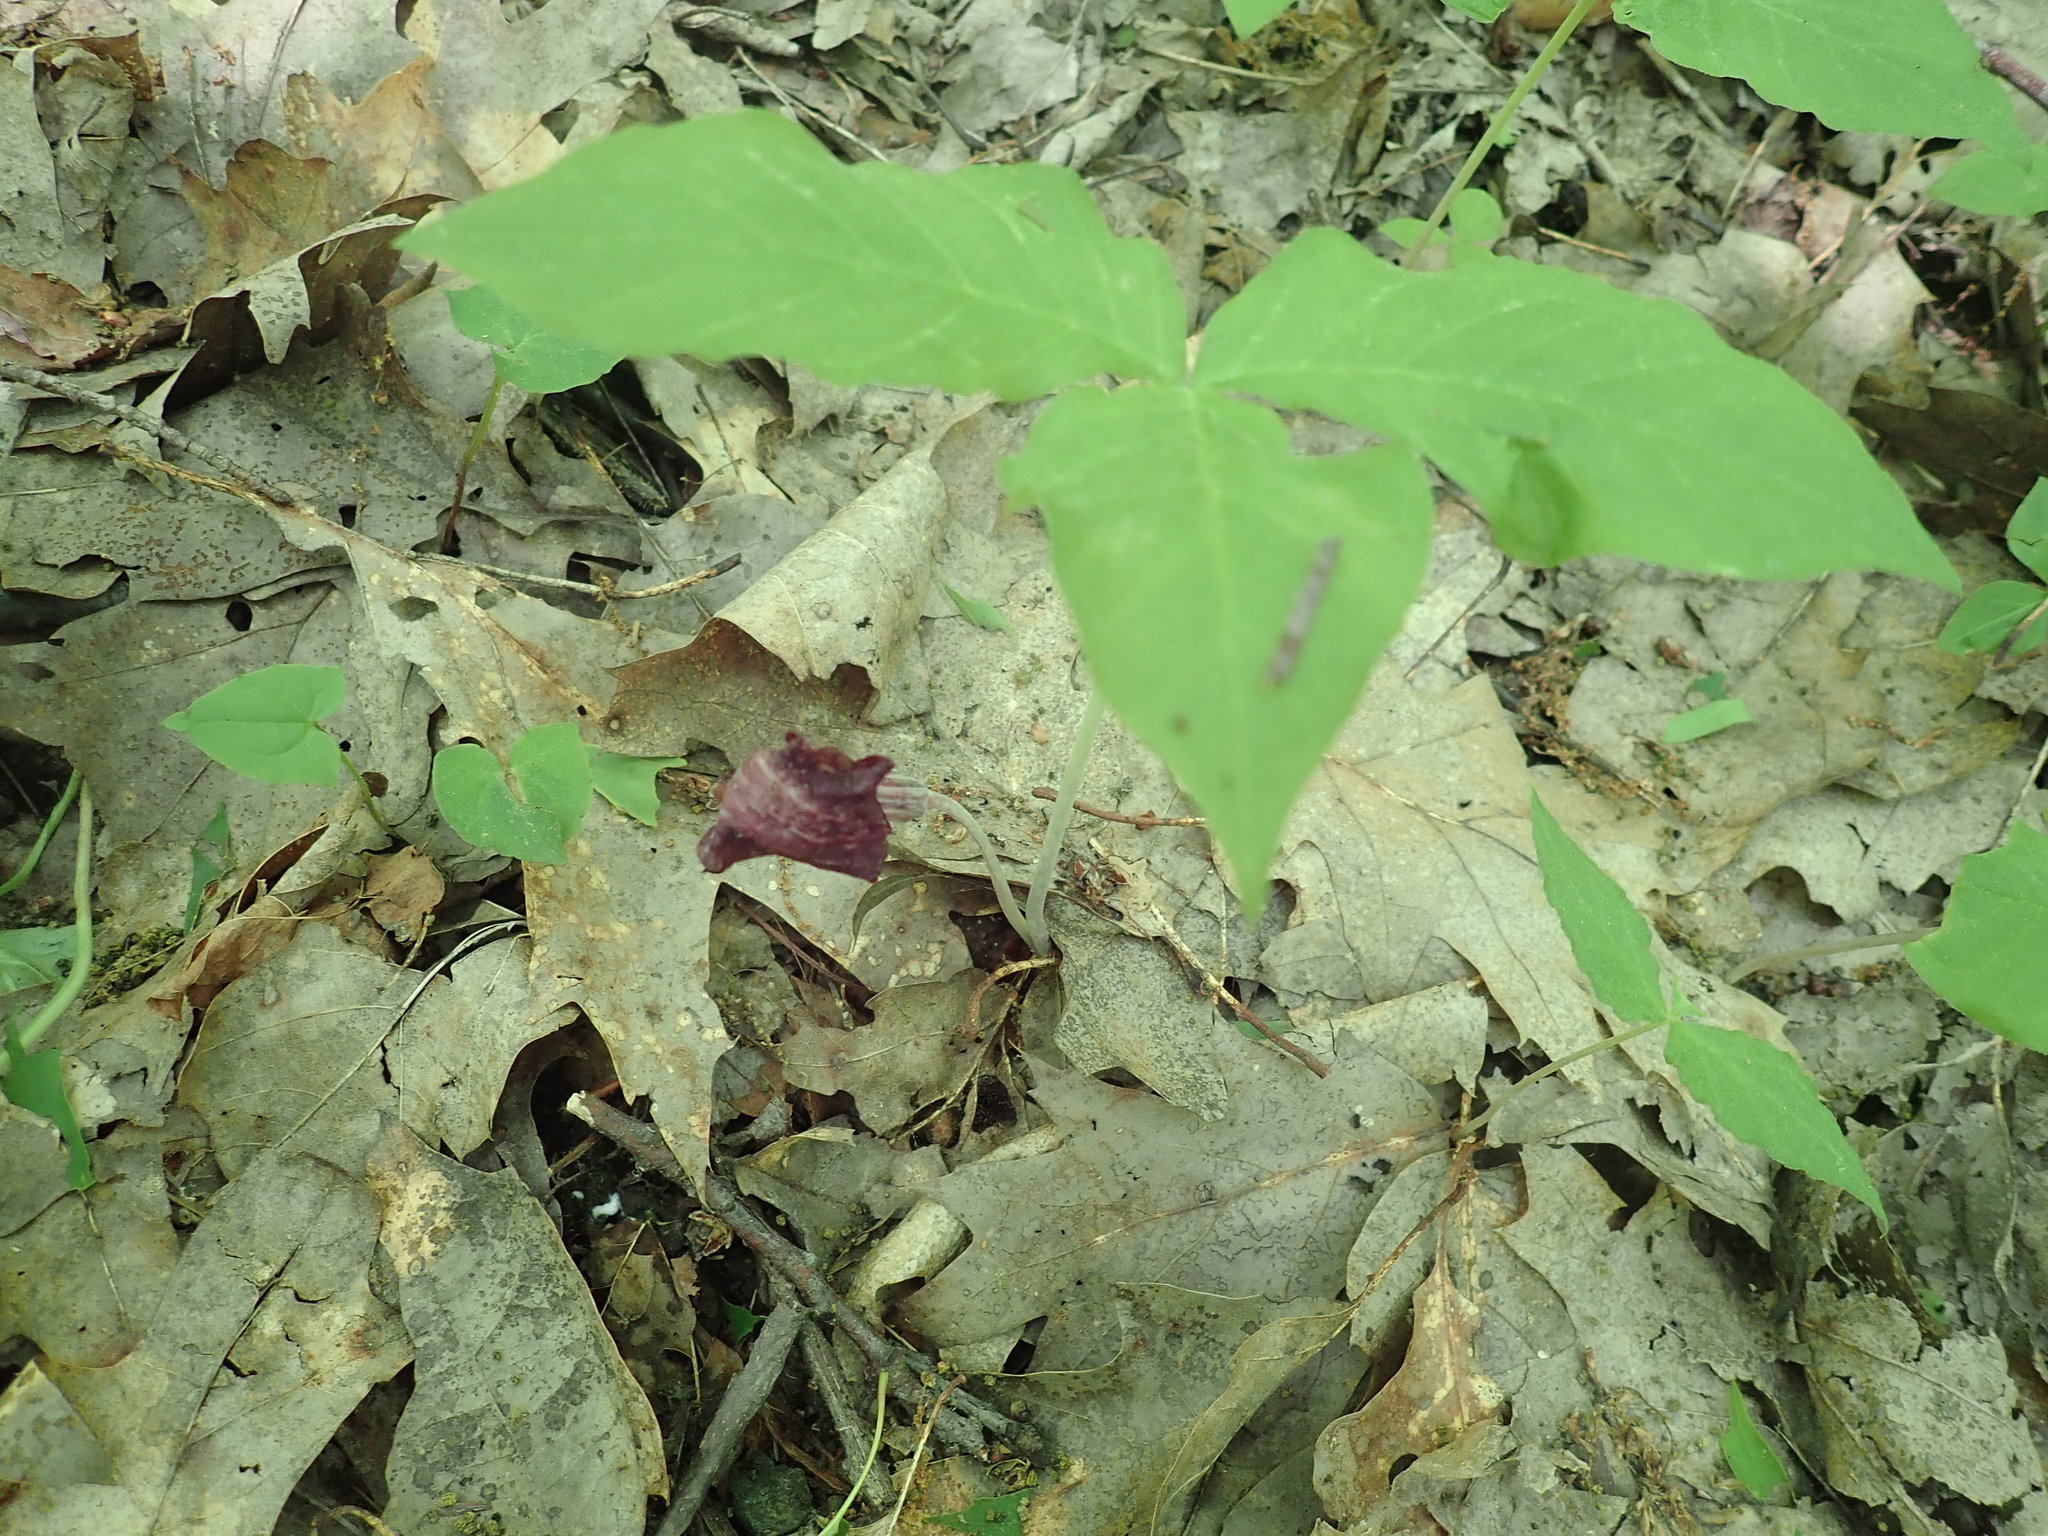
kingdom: Plantae
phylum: Tracheophyta
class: Liliopsida
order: Alismatales
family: Araceae
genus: Arisaema
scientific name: Arisaema triphyllum
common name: Jack-in-the-pulpit
